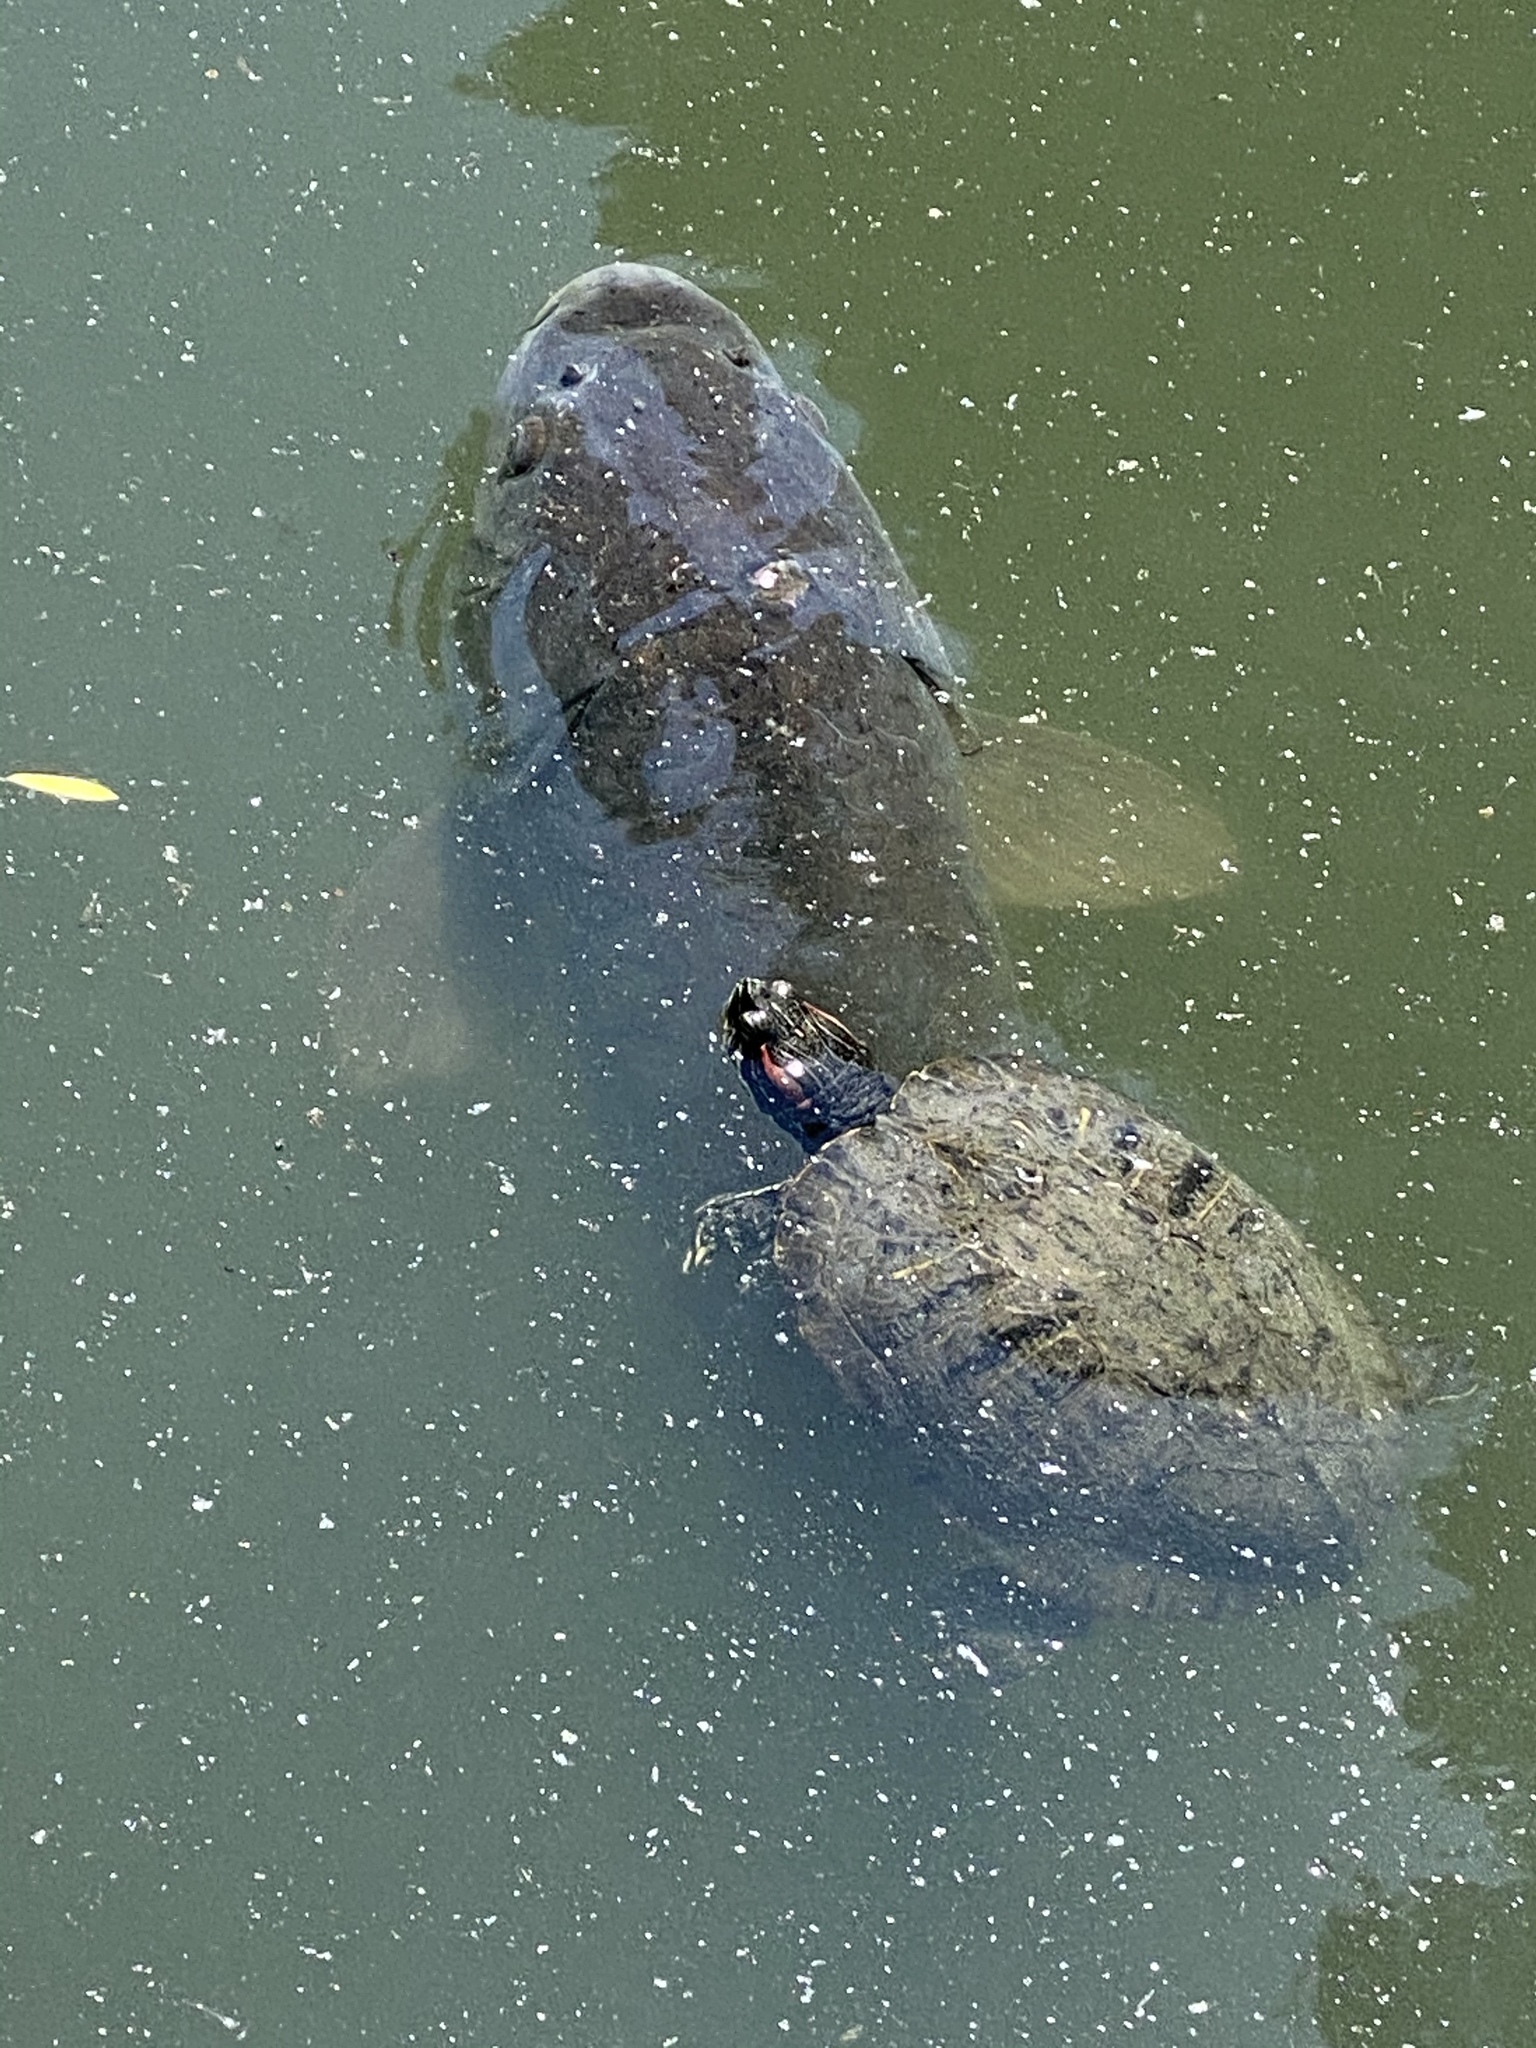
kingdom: Animalia
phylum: Chordata
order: Cypriniformes
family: Cyprinidae
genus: Cyprinus
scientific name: Cyprinus carpio
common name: Common carp
